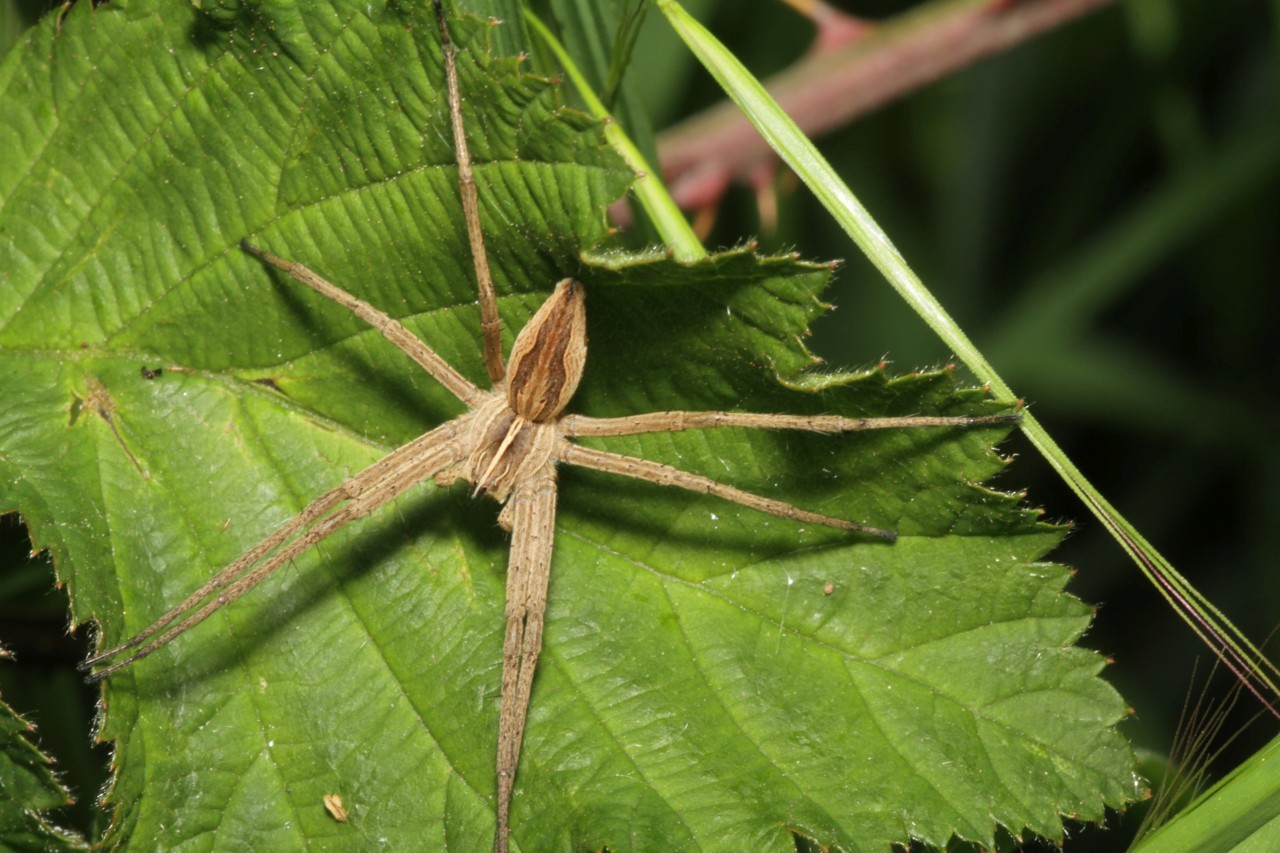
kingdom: Animalia
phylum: Arthropoda
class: Arachnida
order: Araneae
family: Pisauridae
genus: Pisaura
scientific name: Pisaura mirabilis
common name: Tent spider
